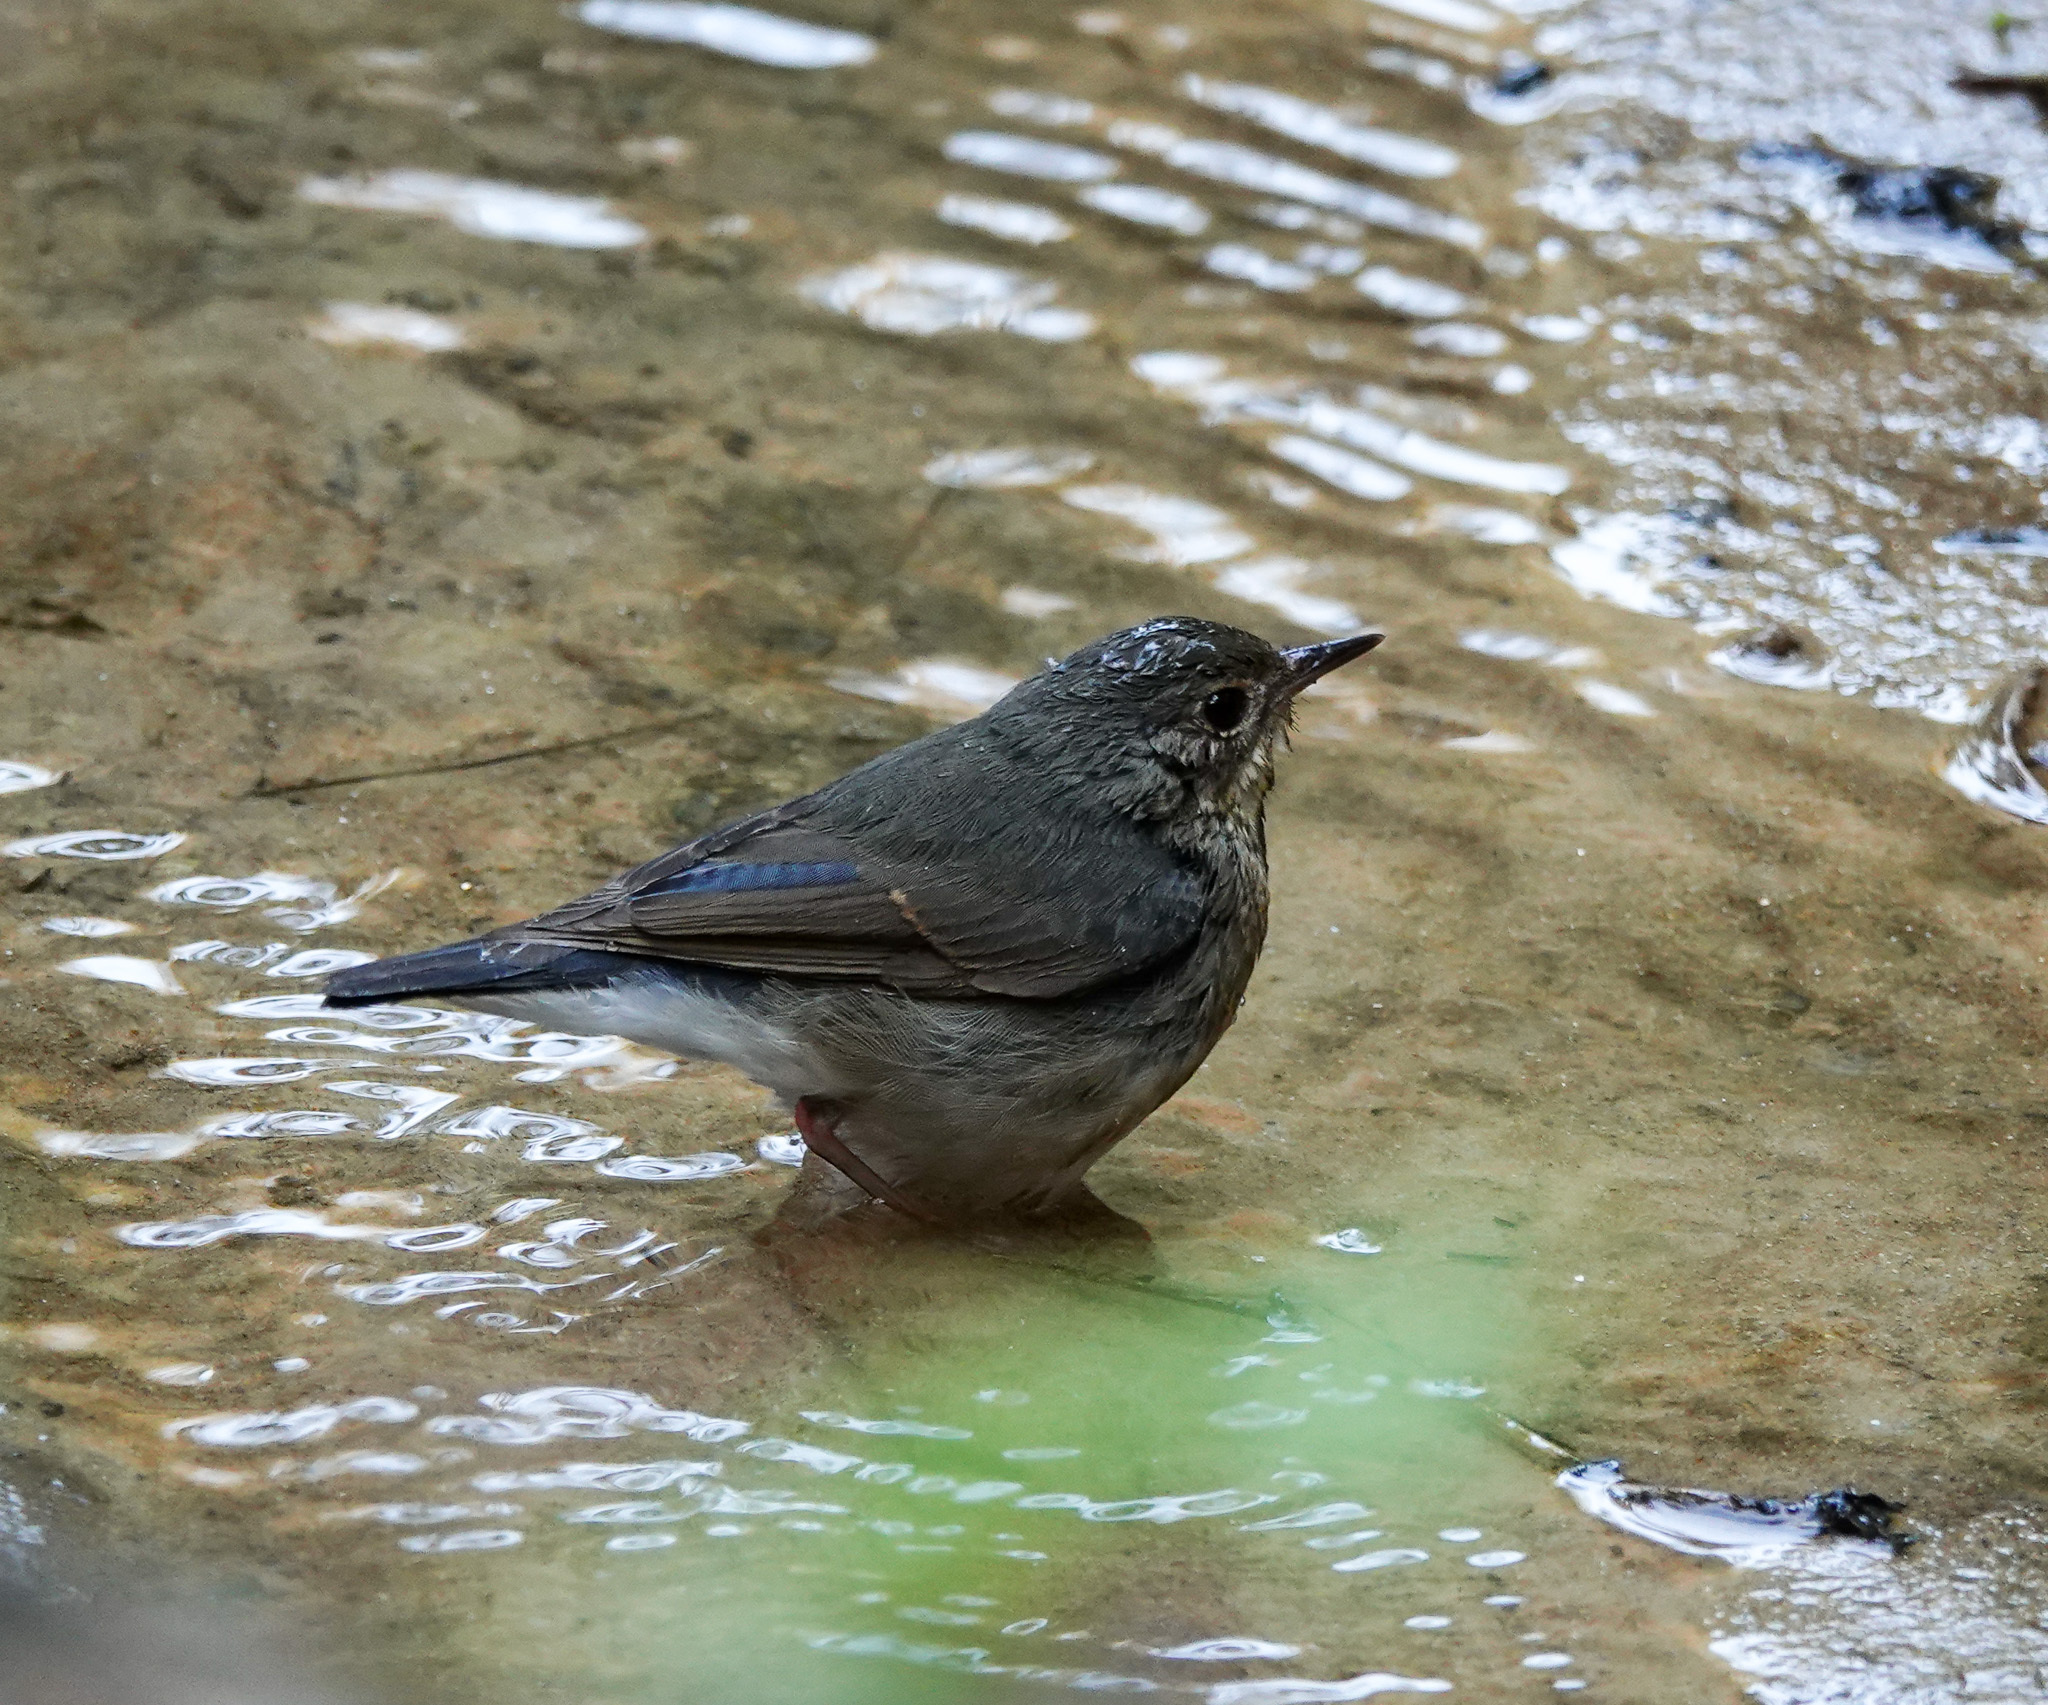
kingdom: Animalia
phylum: Chordata
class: Aves
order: Passeriformes
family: Muscicapidae
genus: Luscinia
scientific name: Luscinia cyane
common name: Siberian blue robin
